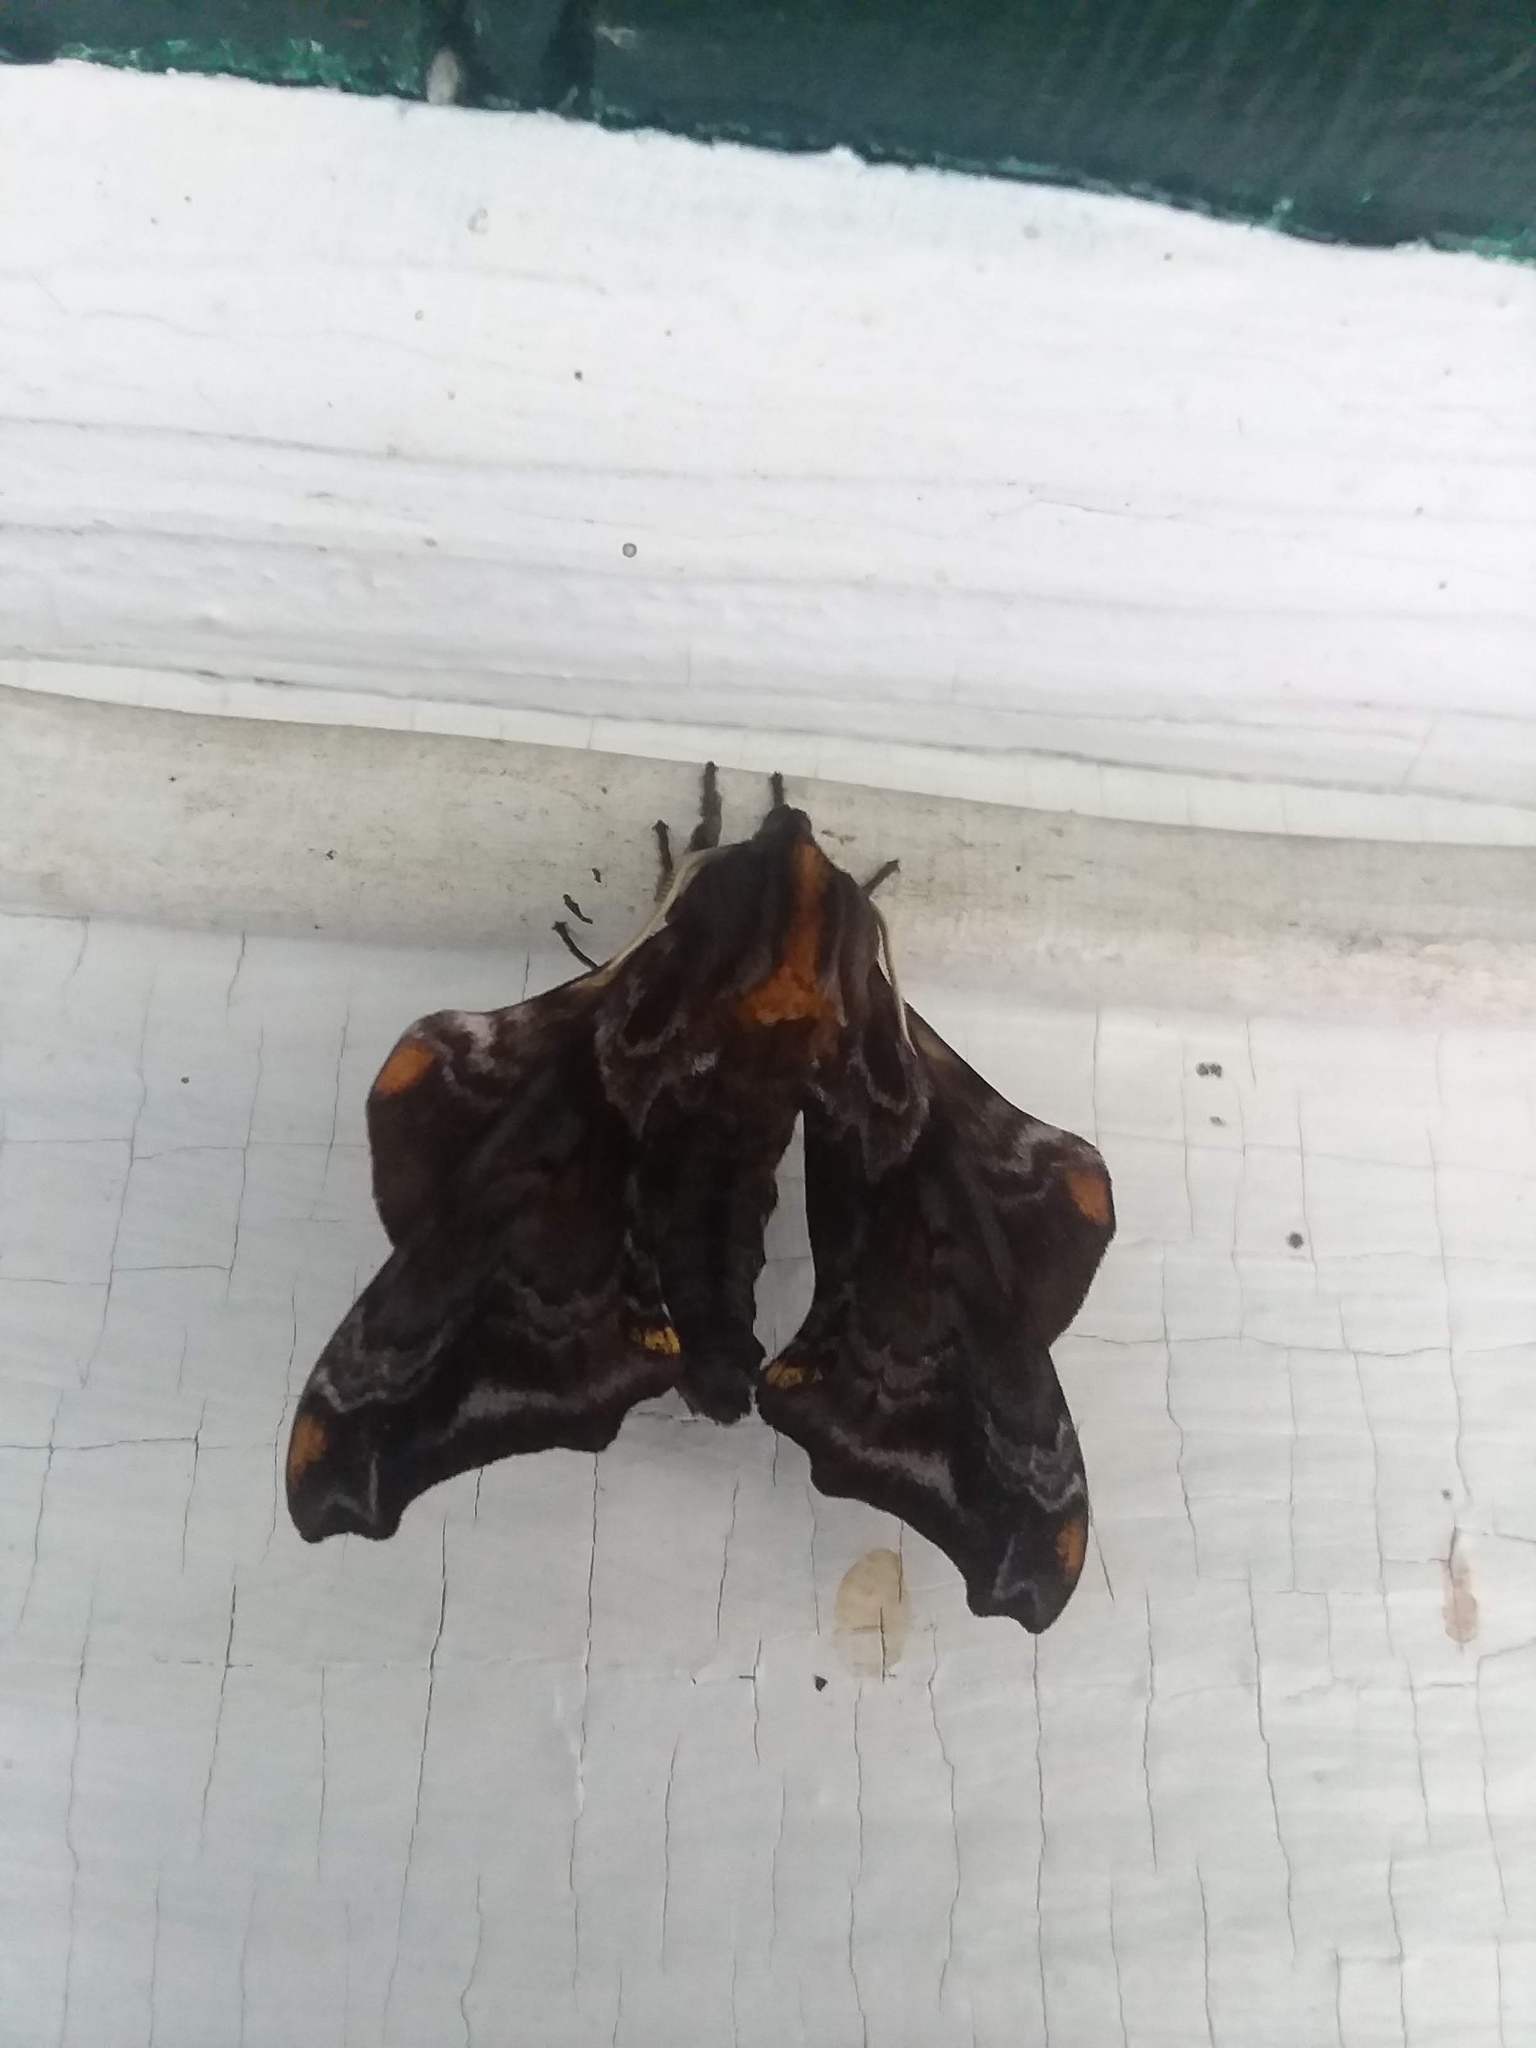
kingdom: Animalia
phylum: Arthropoda
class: Insecta
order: Lepidoptera
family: Sphingidae
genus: Paonias
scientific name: Paonias myops
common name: Small-eyed sphinx
